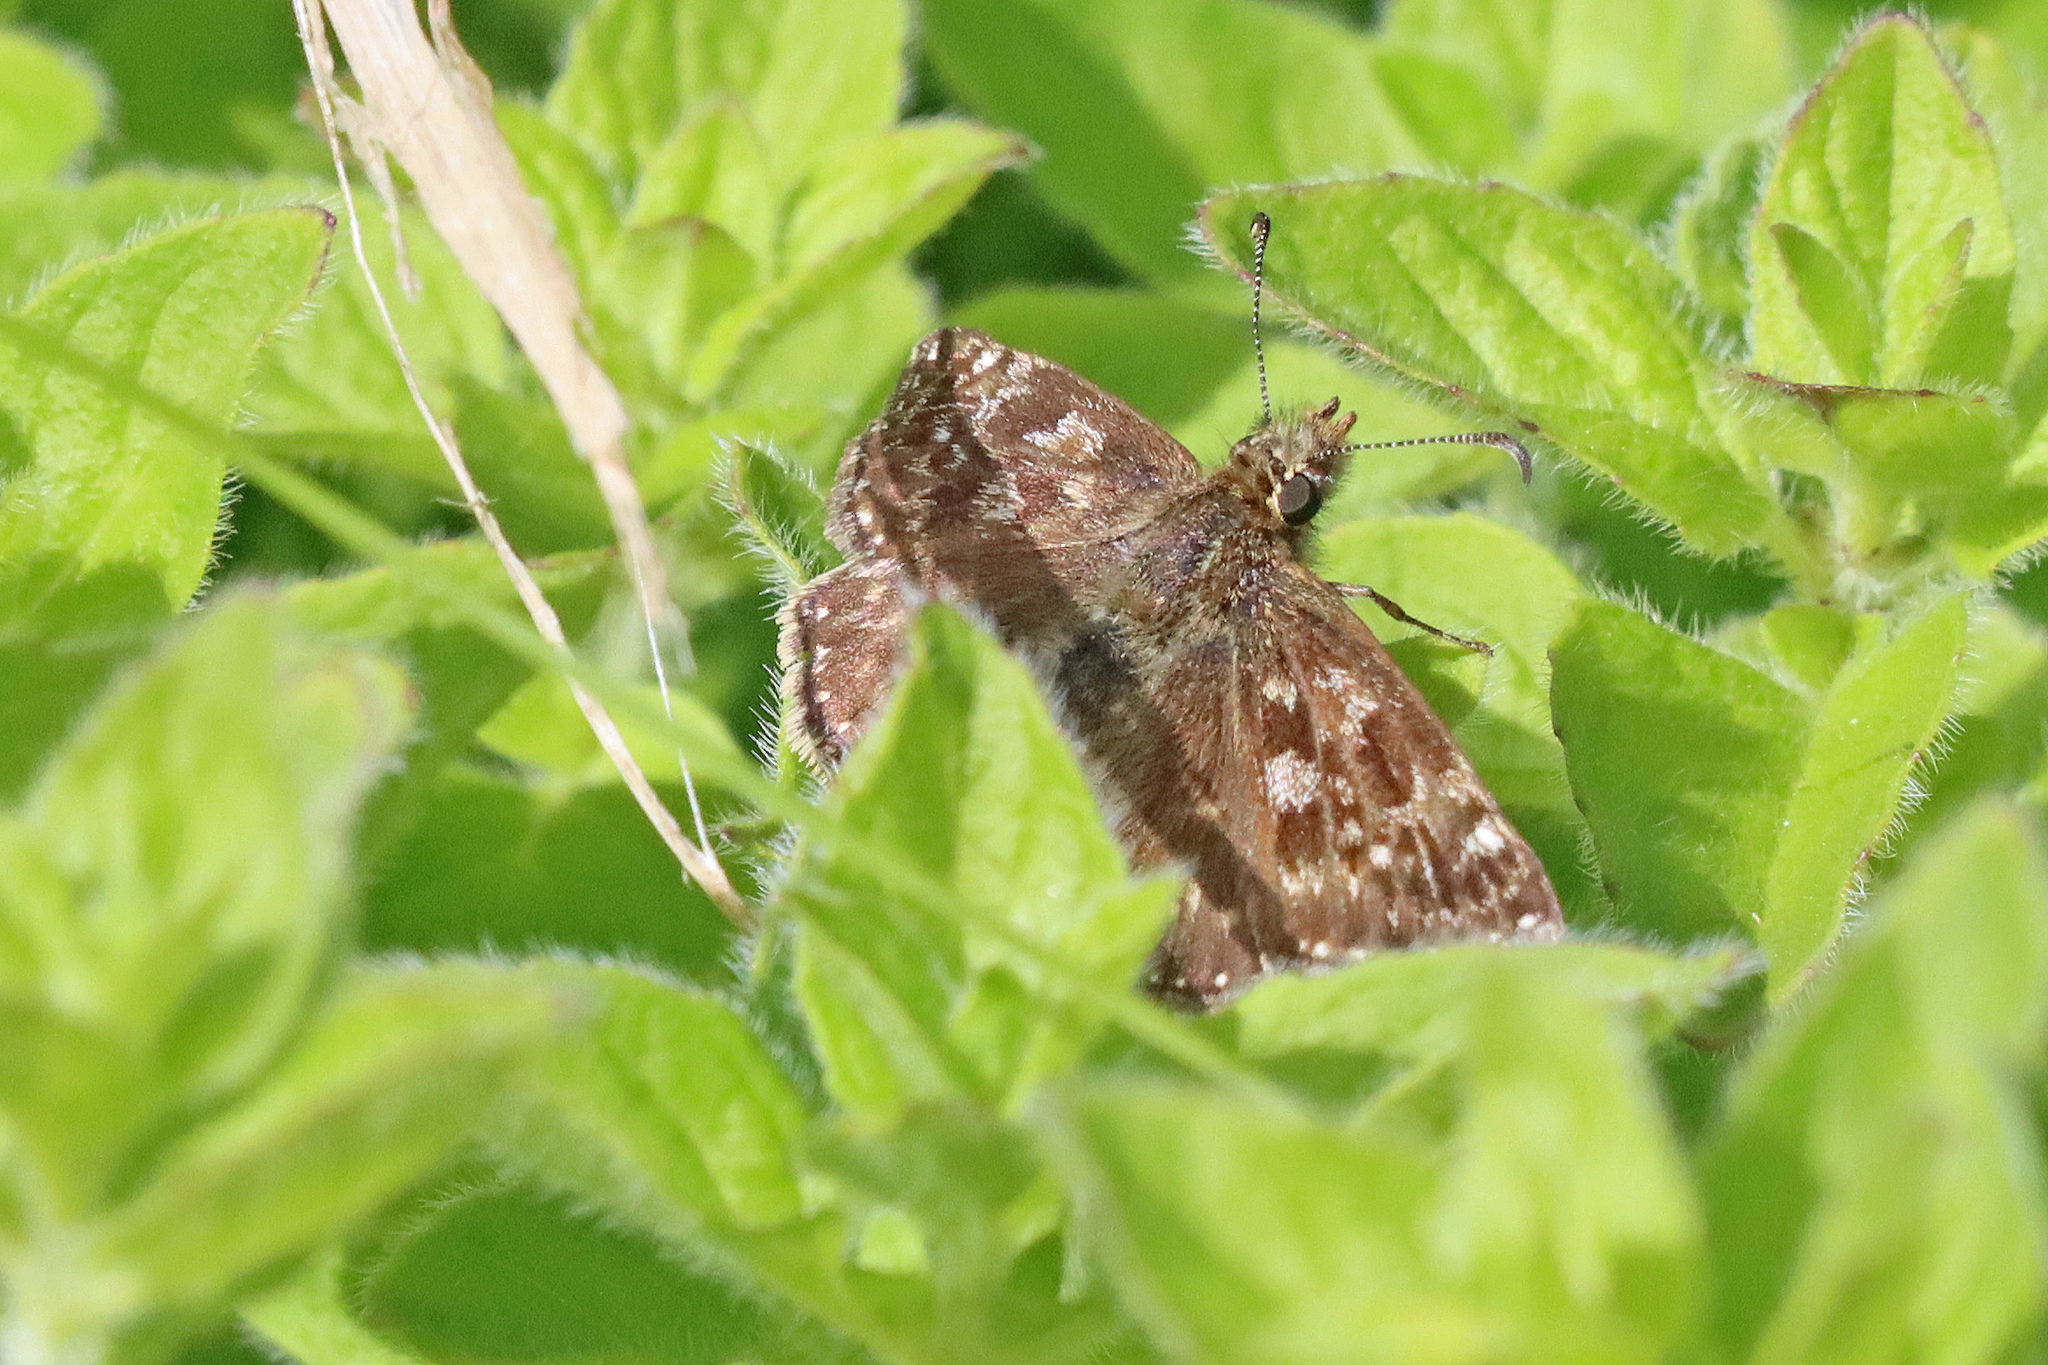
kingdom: Animalia
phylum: Arthropoda
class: Insecta
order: Lepidoptera
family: Hesperiidae
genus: Erynnis
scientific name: Erynnis tages
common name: Dingy skipper
